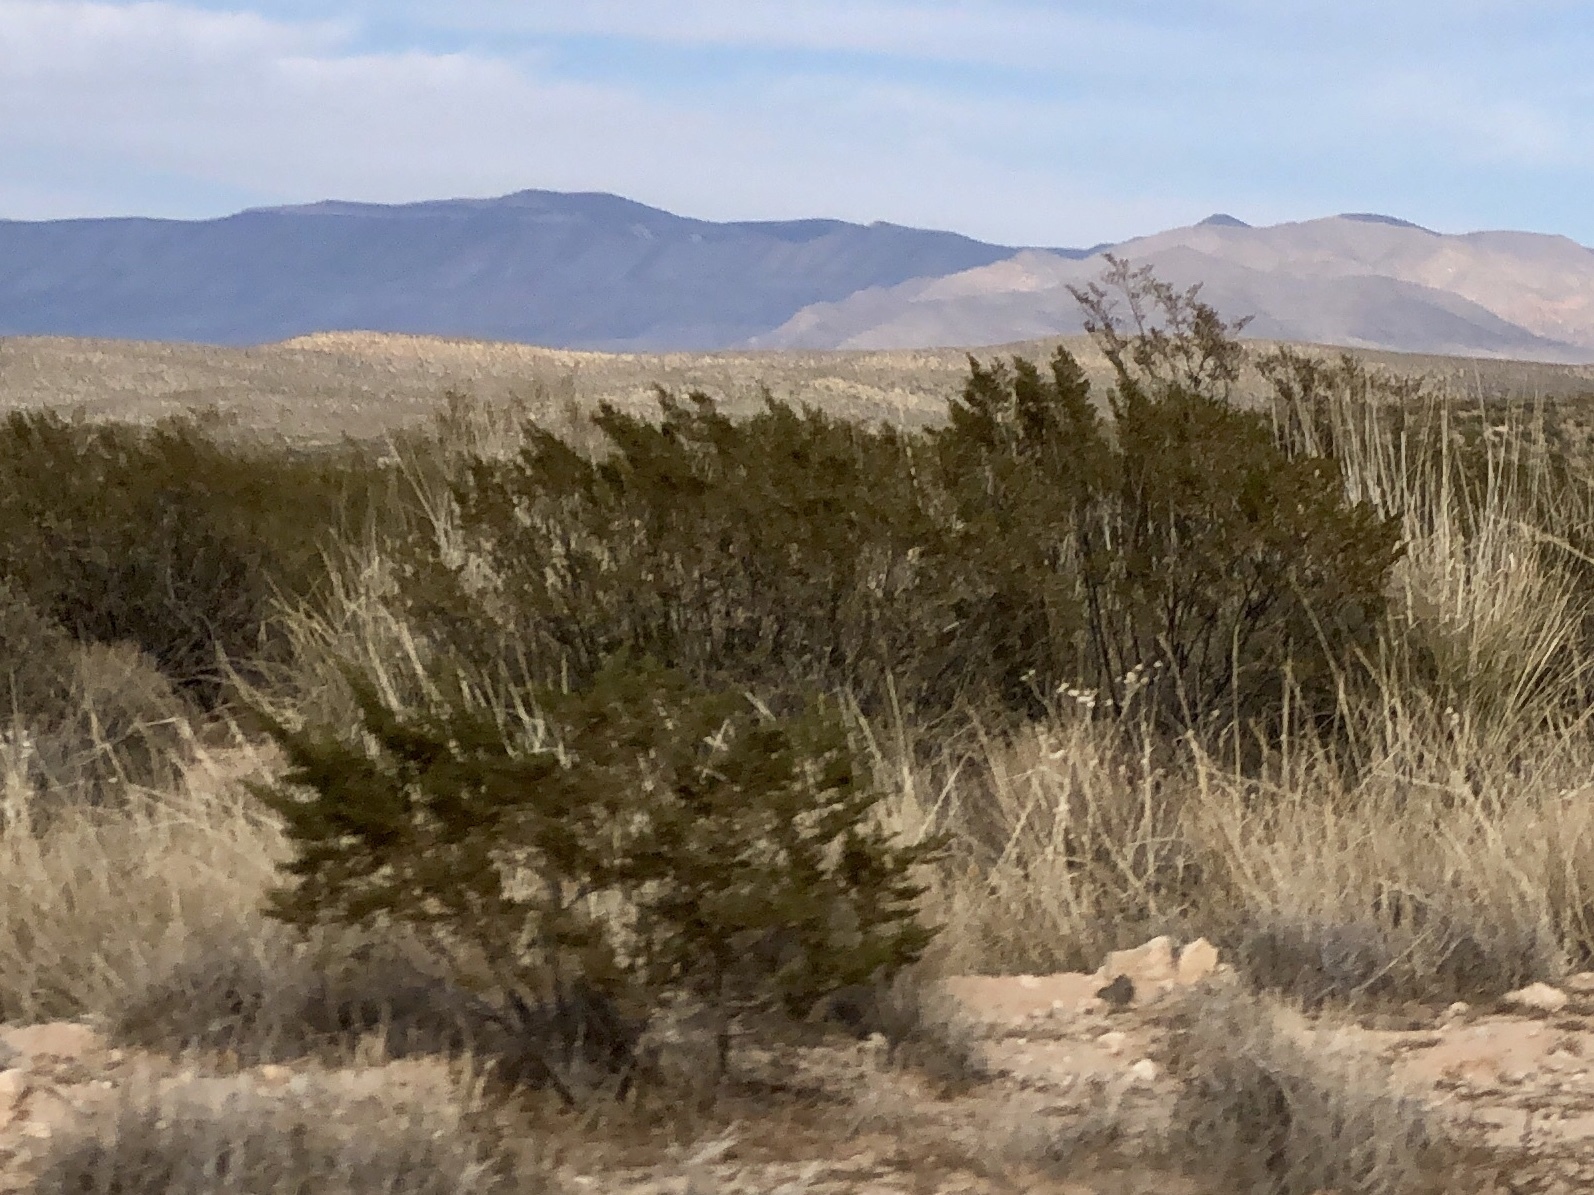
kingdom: Plantae
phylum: Tracheophyta
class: Magnoliopsida
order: Zygophyllales
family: Zygophyllaceae
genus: Larrea
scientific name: Larrea tridentata
